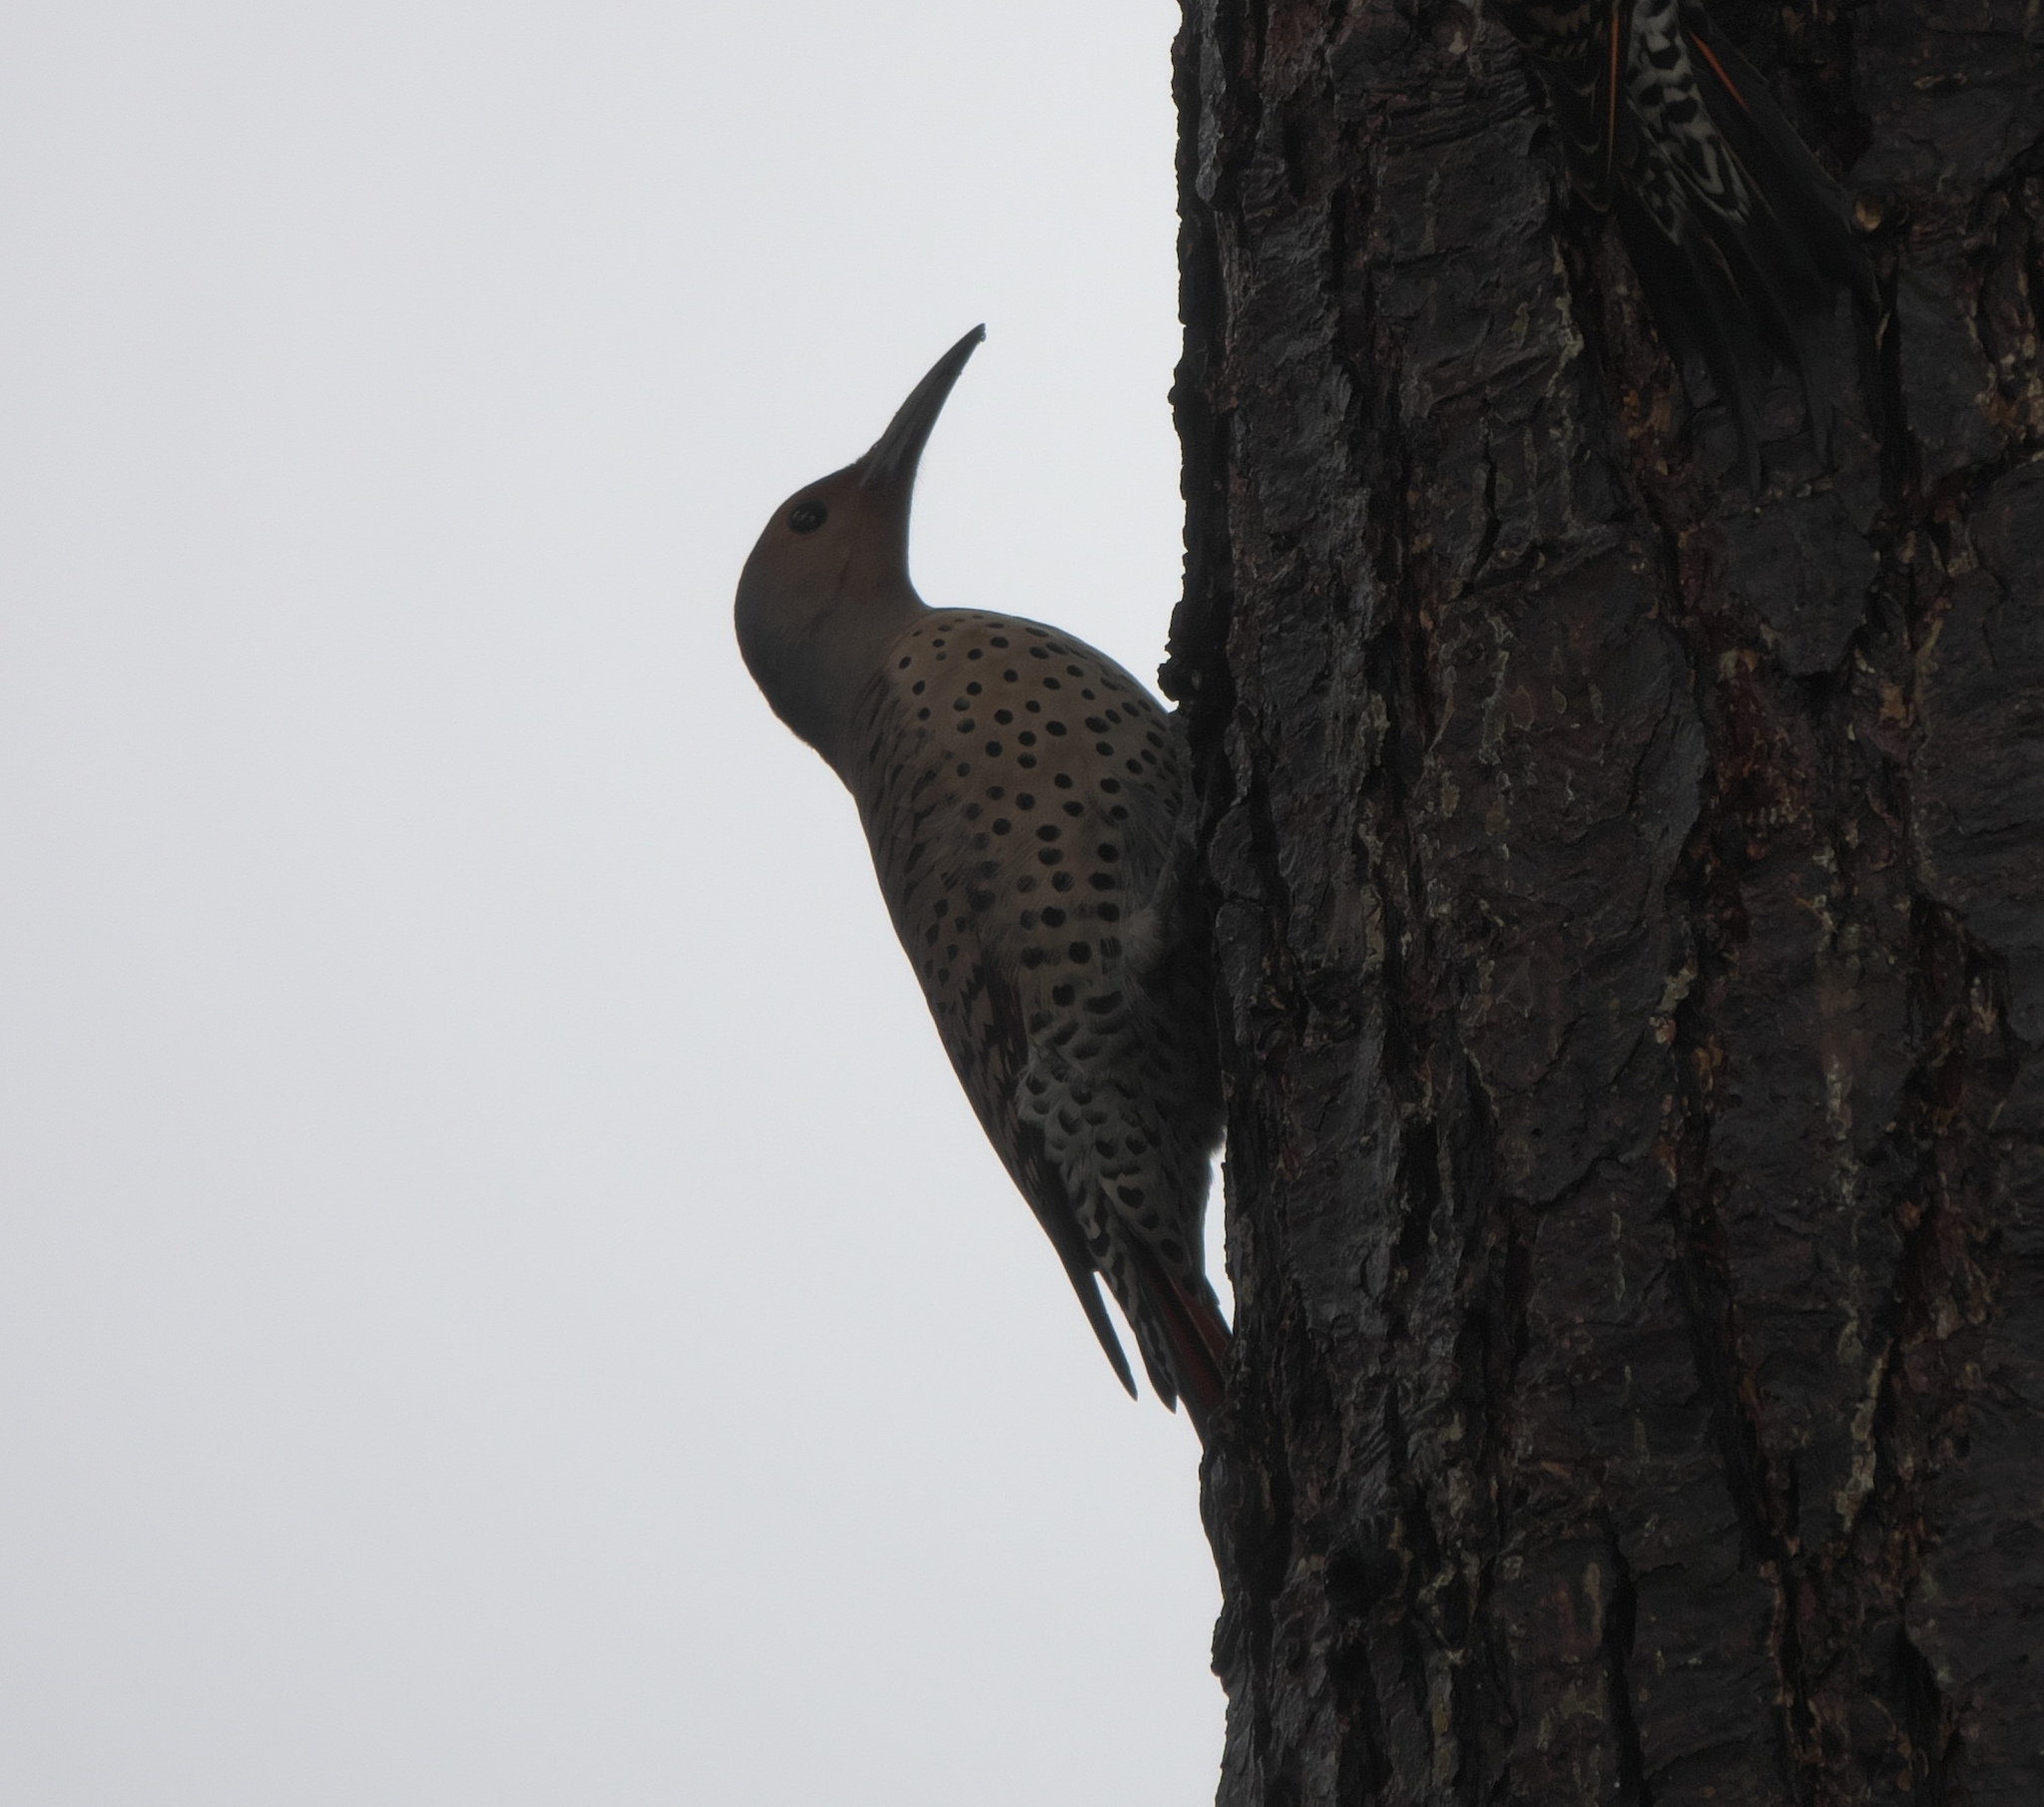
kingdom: Animalia
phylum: Chordata
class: Aves
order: Piciformes
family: Picidae
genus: Colaptes
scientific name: Colaptes auratus
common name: Northern flicker
